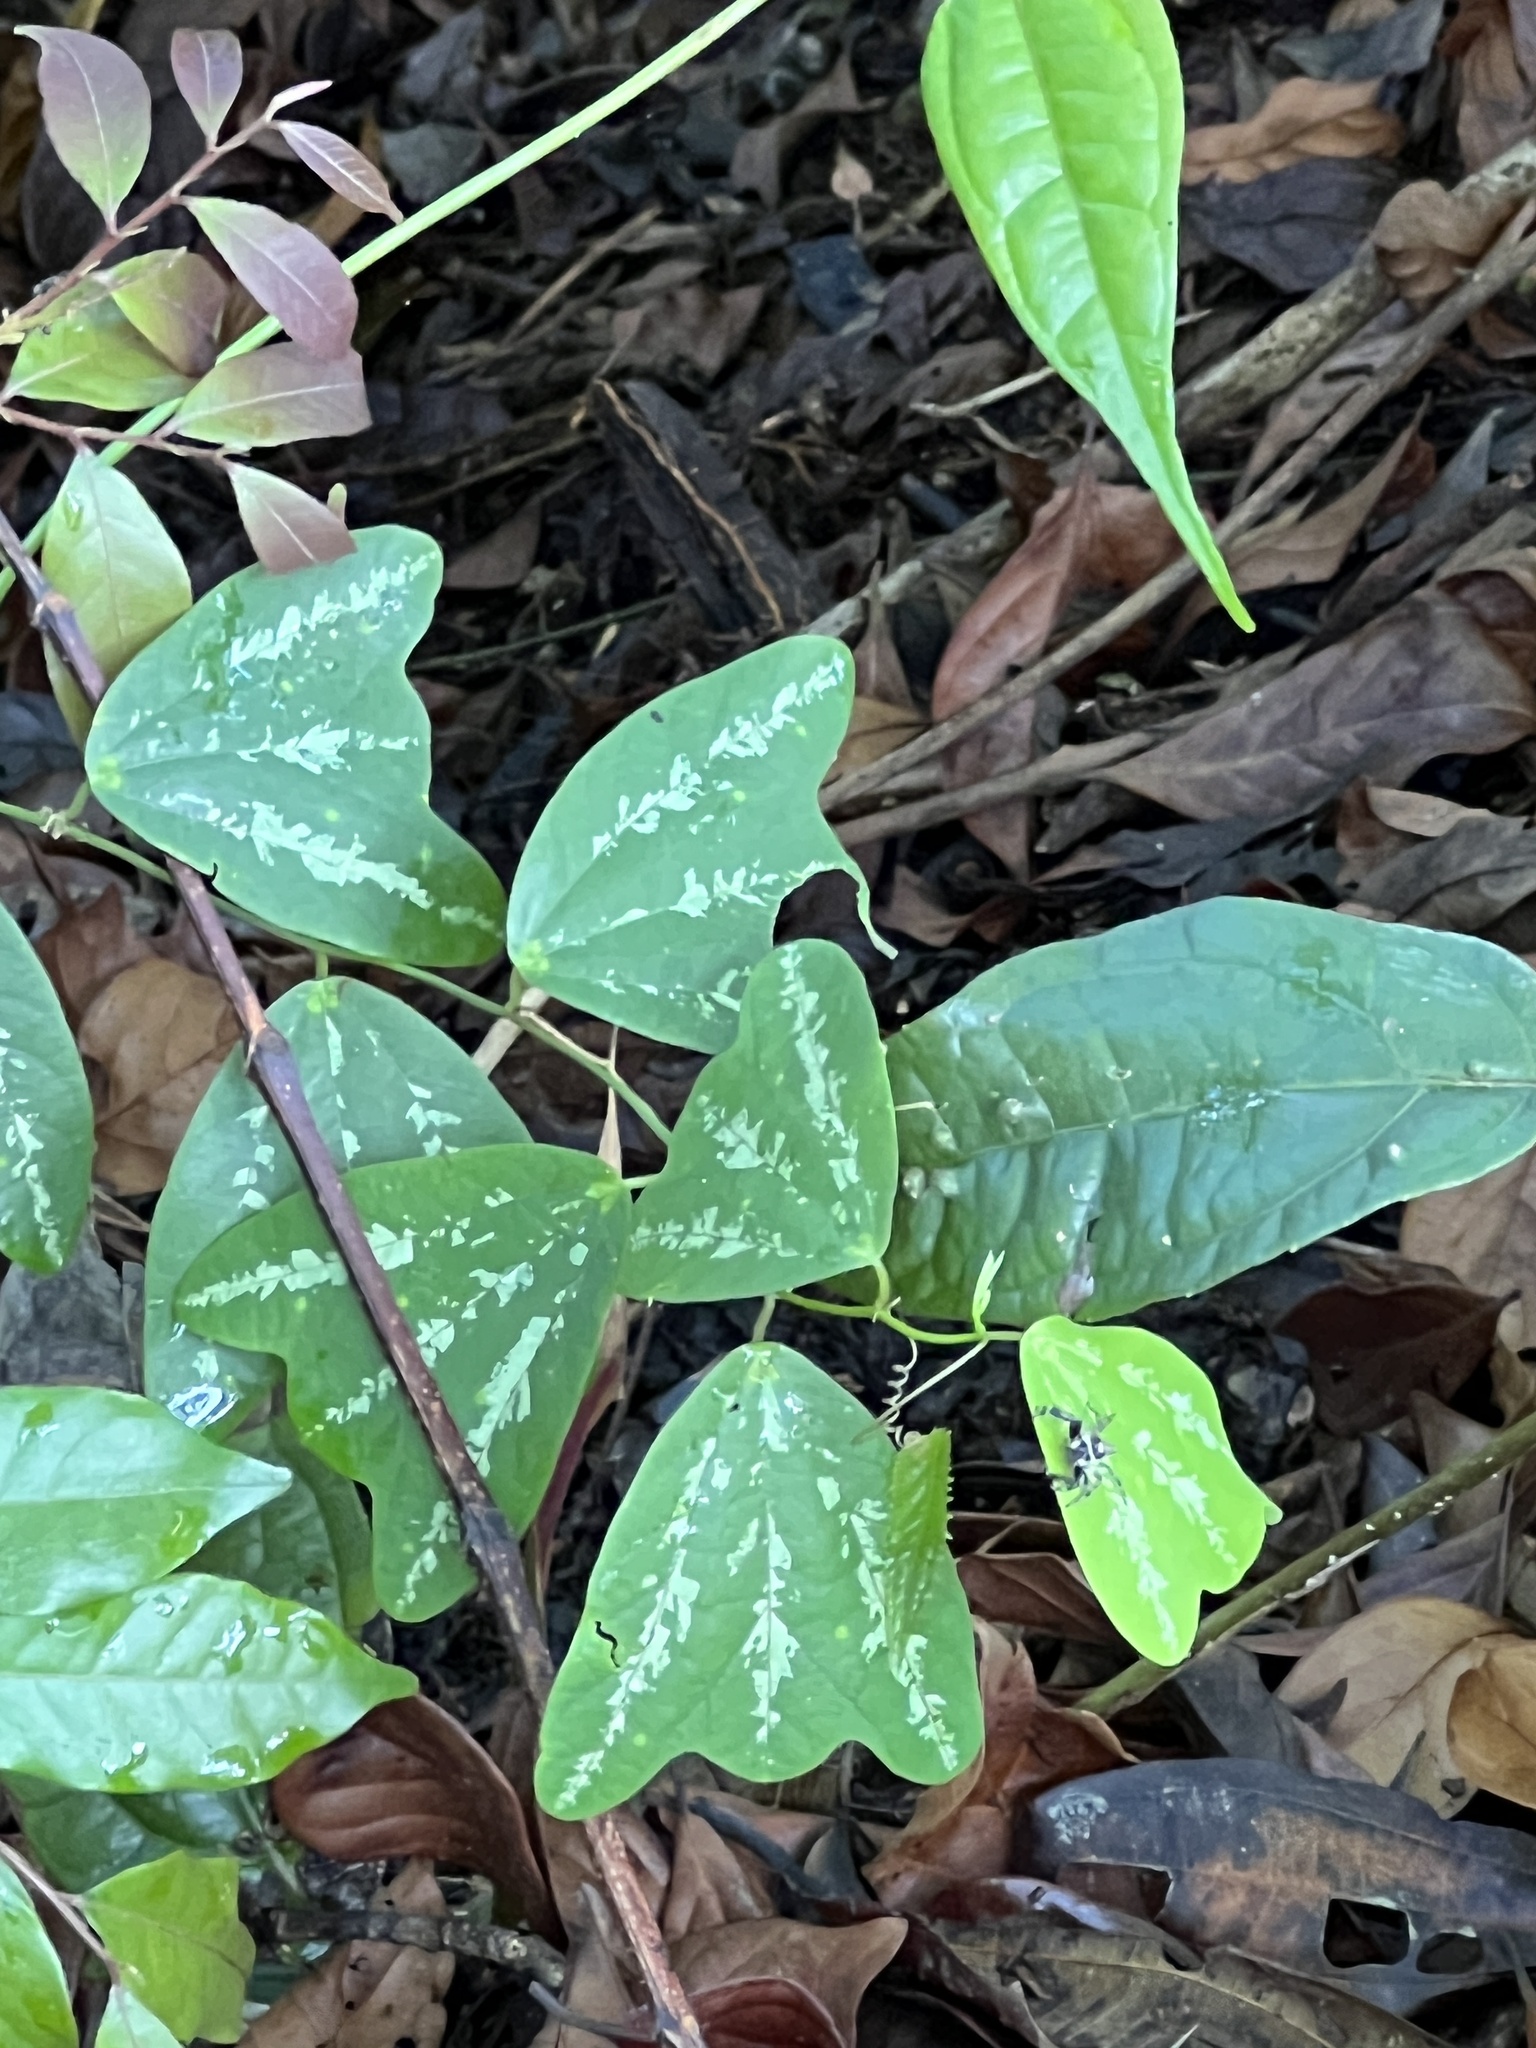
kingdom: Plantae
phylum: Tracheophyta
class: Liliopsida
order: Alismatales
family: Araceae
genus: Monstera
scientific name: Monstera dubia
